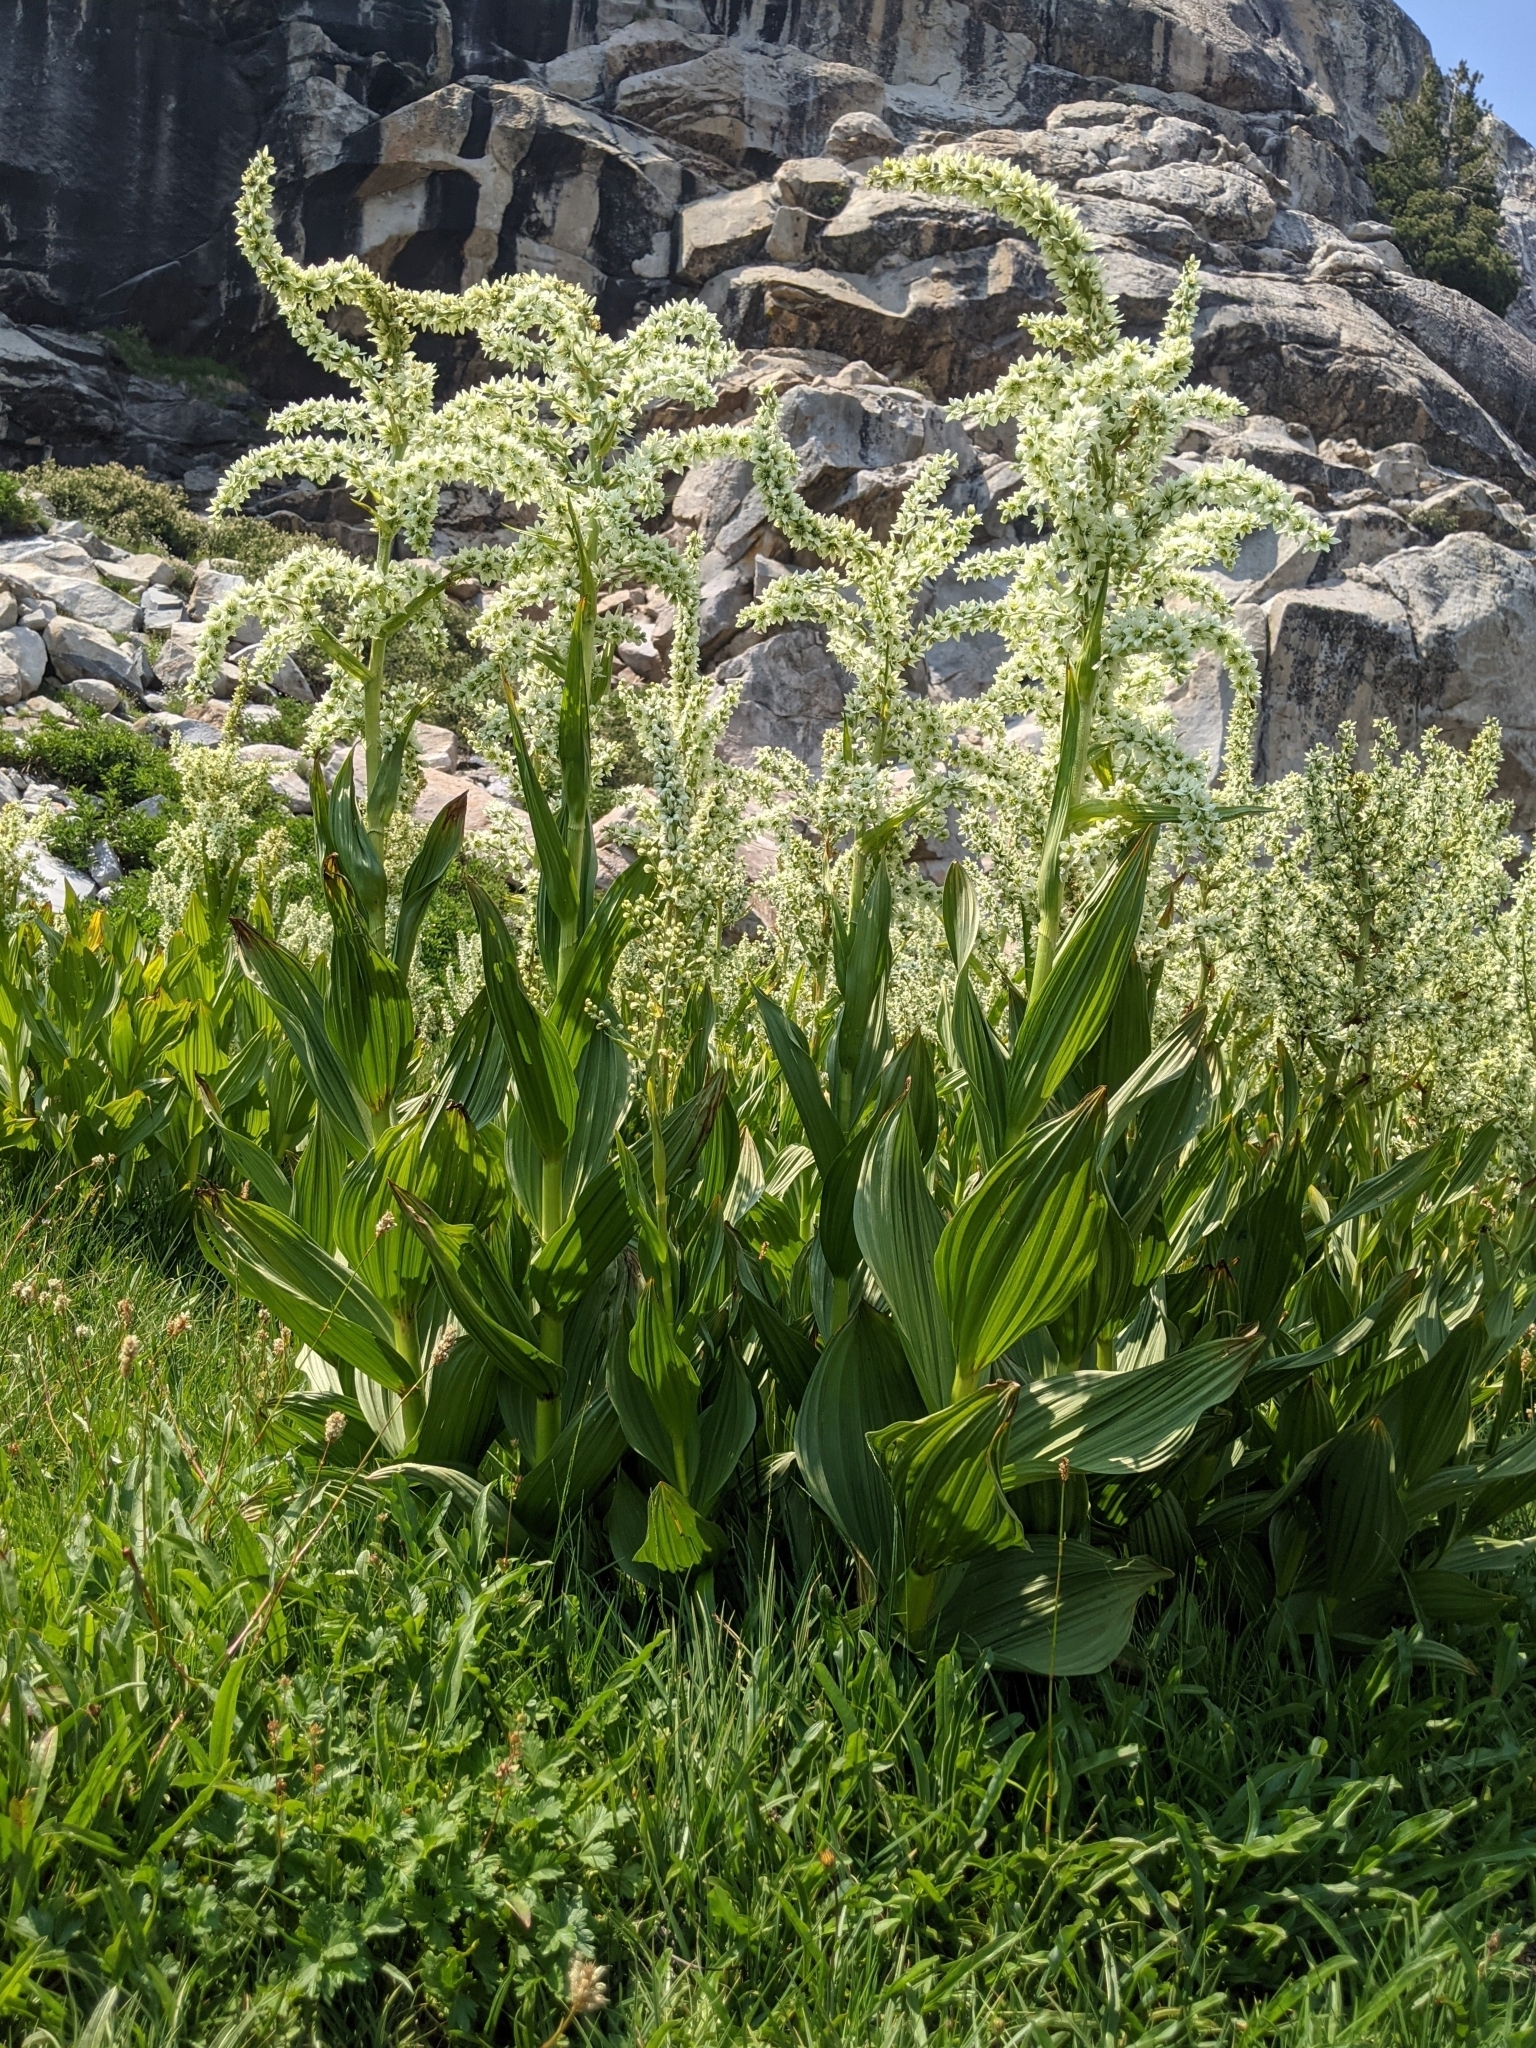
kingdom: Plantae
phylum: Tracheophyta
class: Liliopsida
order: Liliales
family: Melanthiaceae
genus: Veratrum
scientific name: Veratrum californicum
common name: California veratrum
